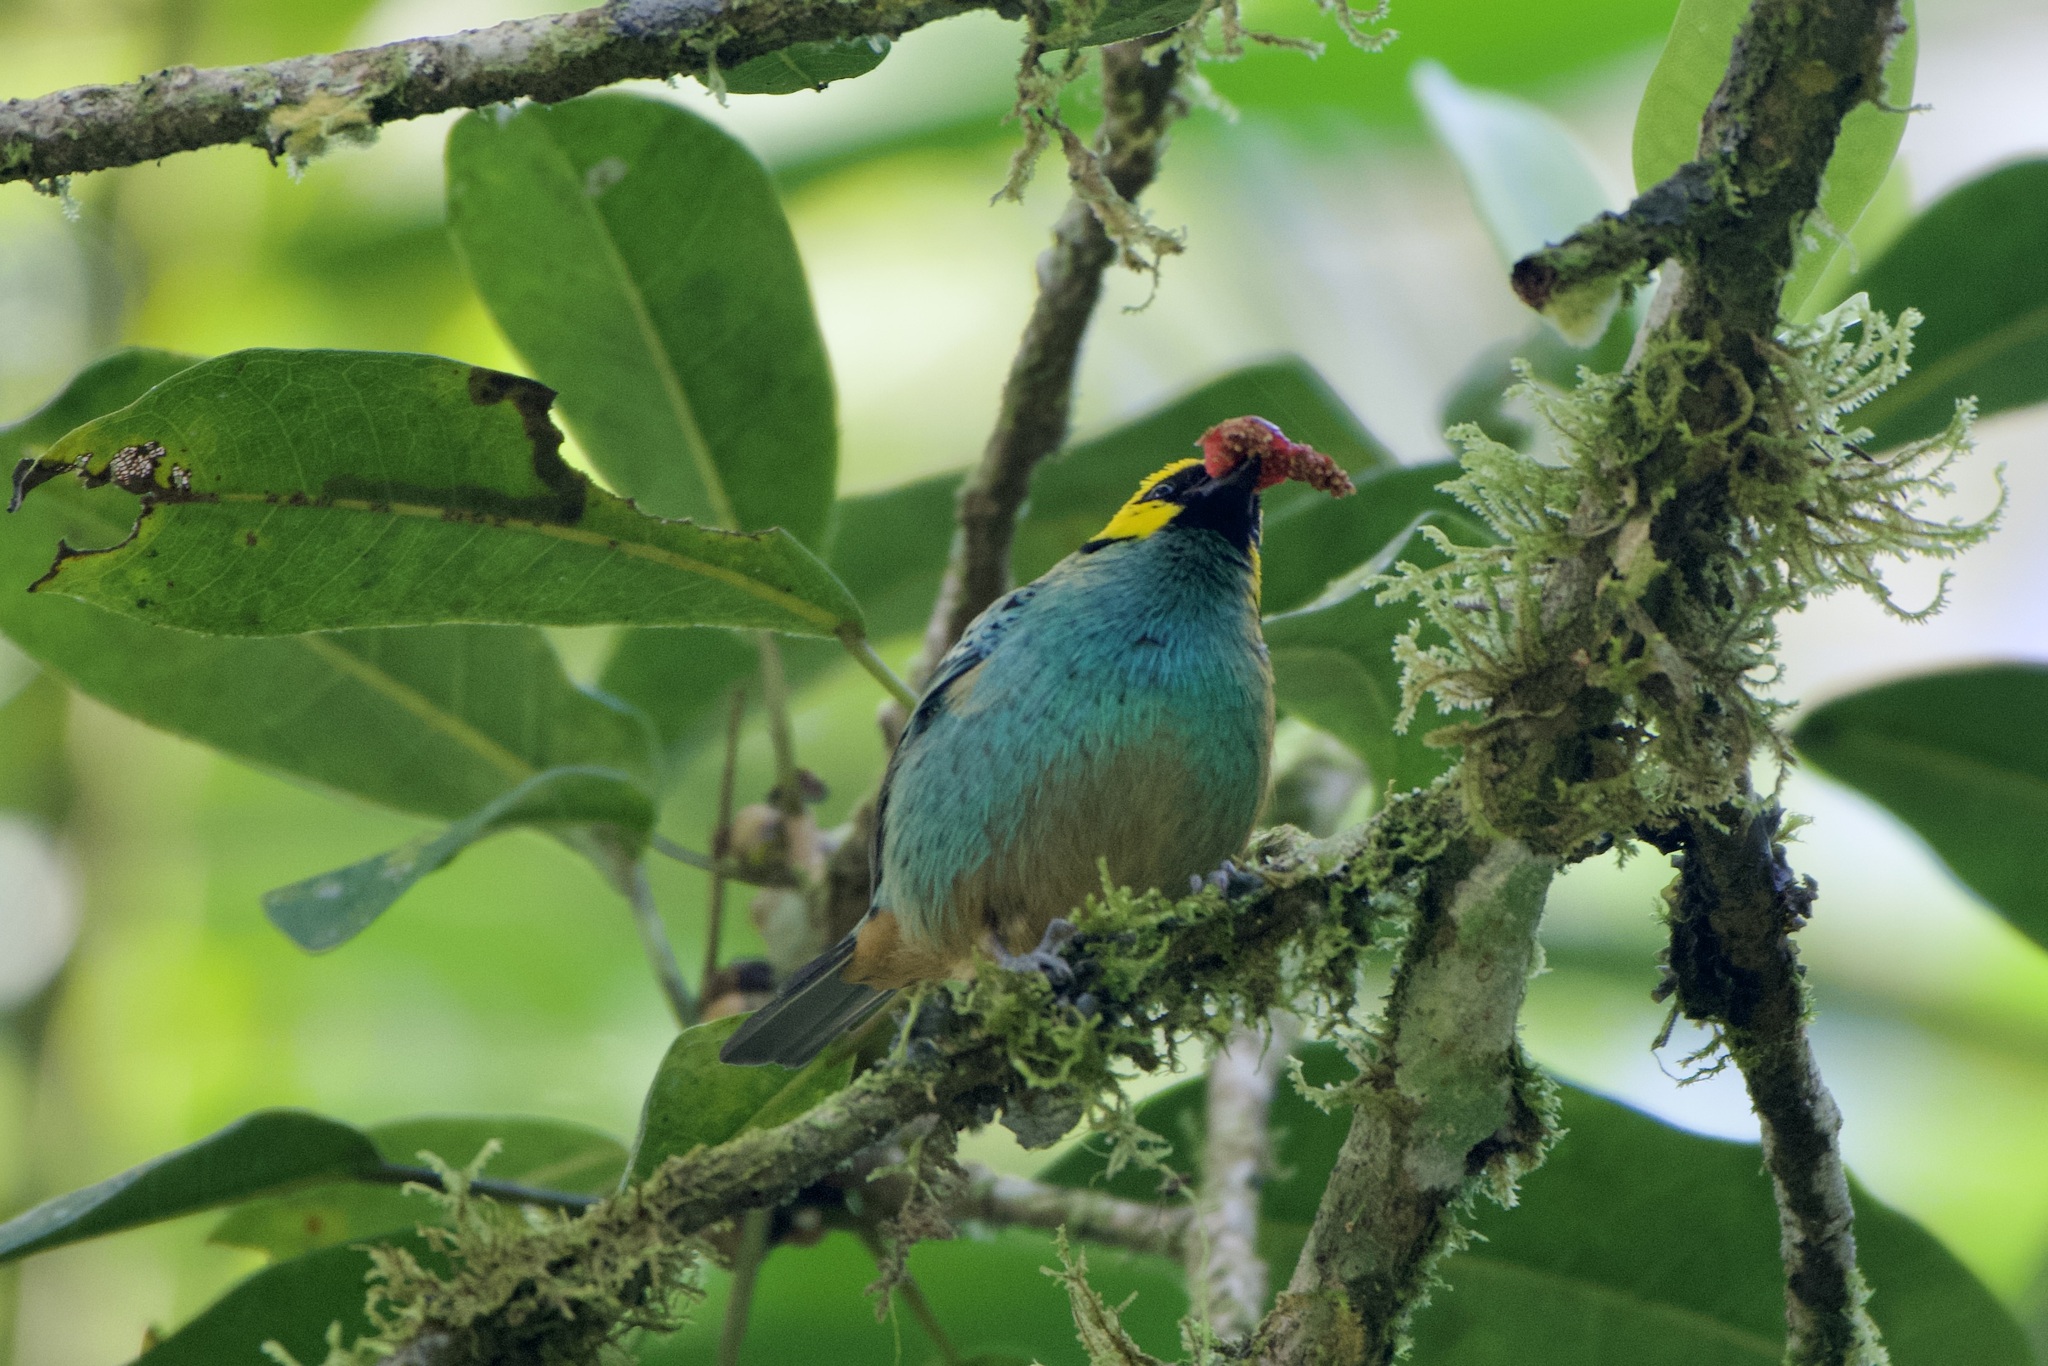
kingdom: Animalia
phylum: Chordata
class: Aves
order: Passeriformes
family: Thraupidae
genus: Tangara
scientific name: Tangara xanthocephala
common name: Saffron-crowned tanager
